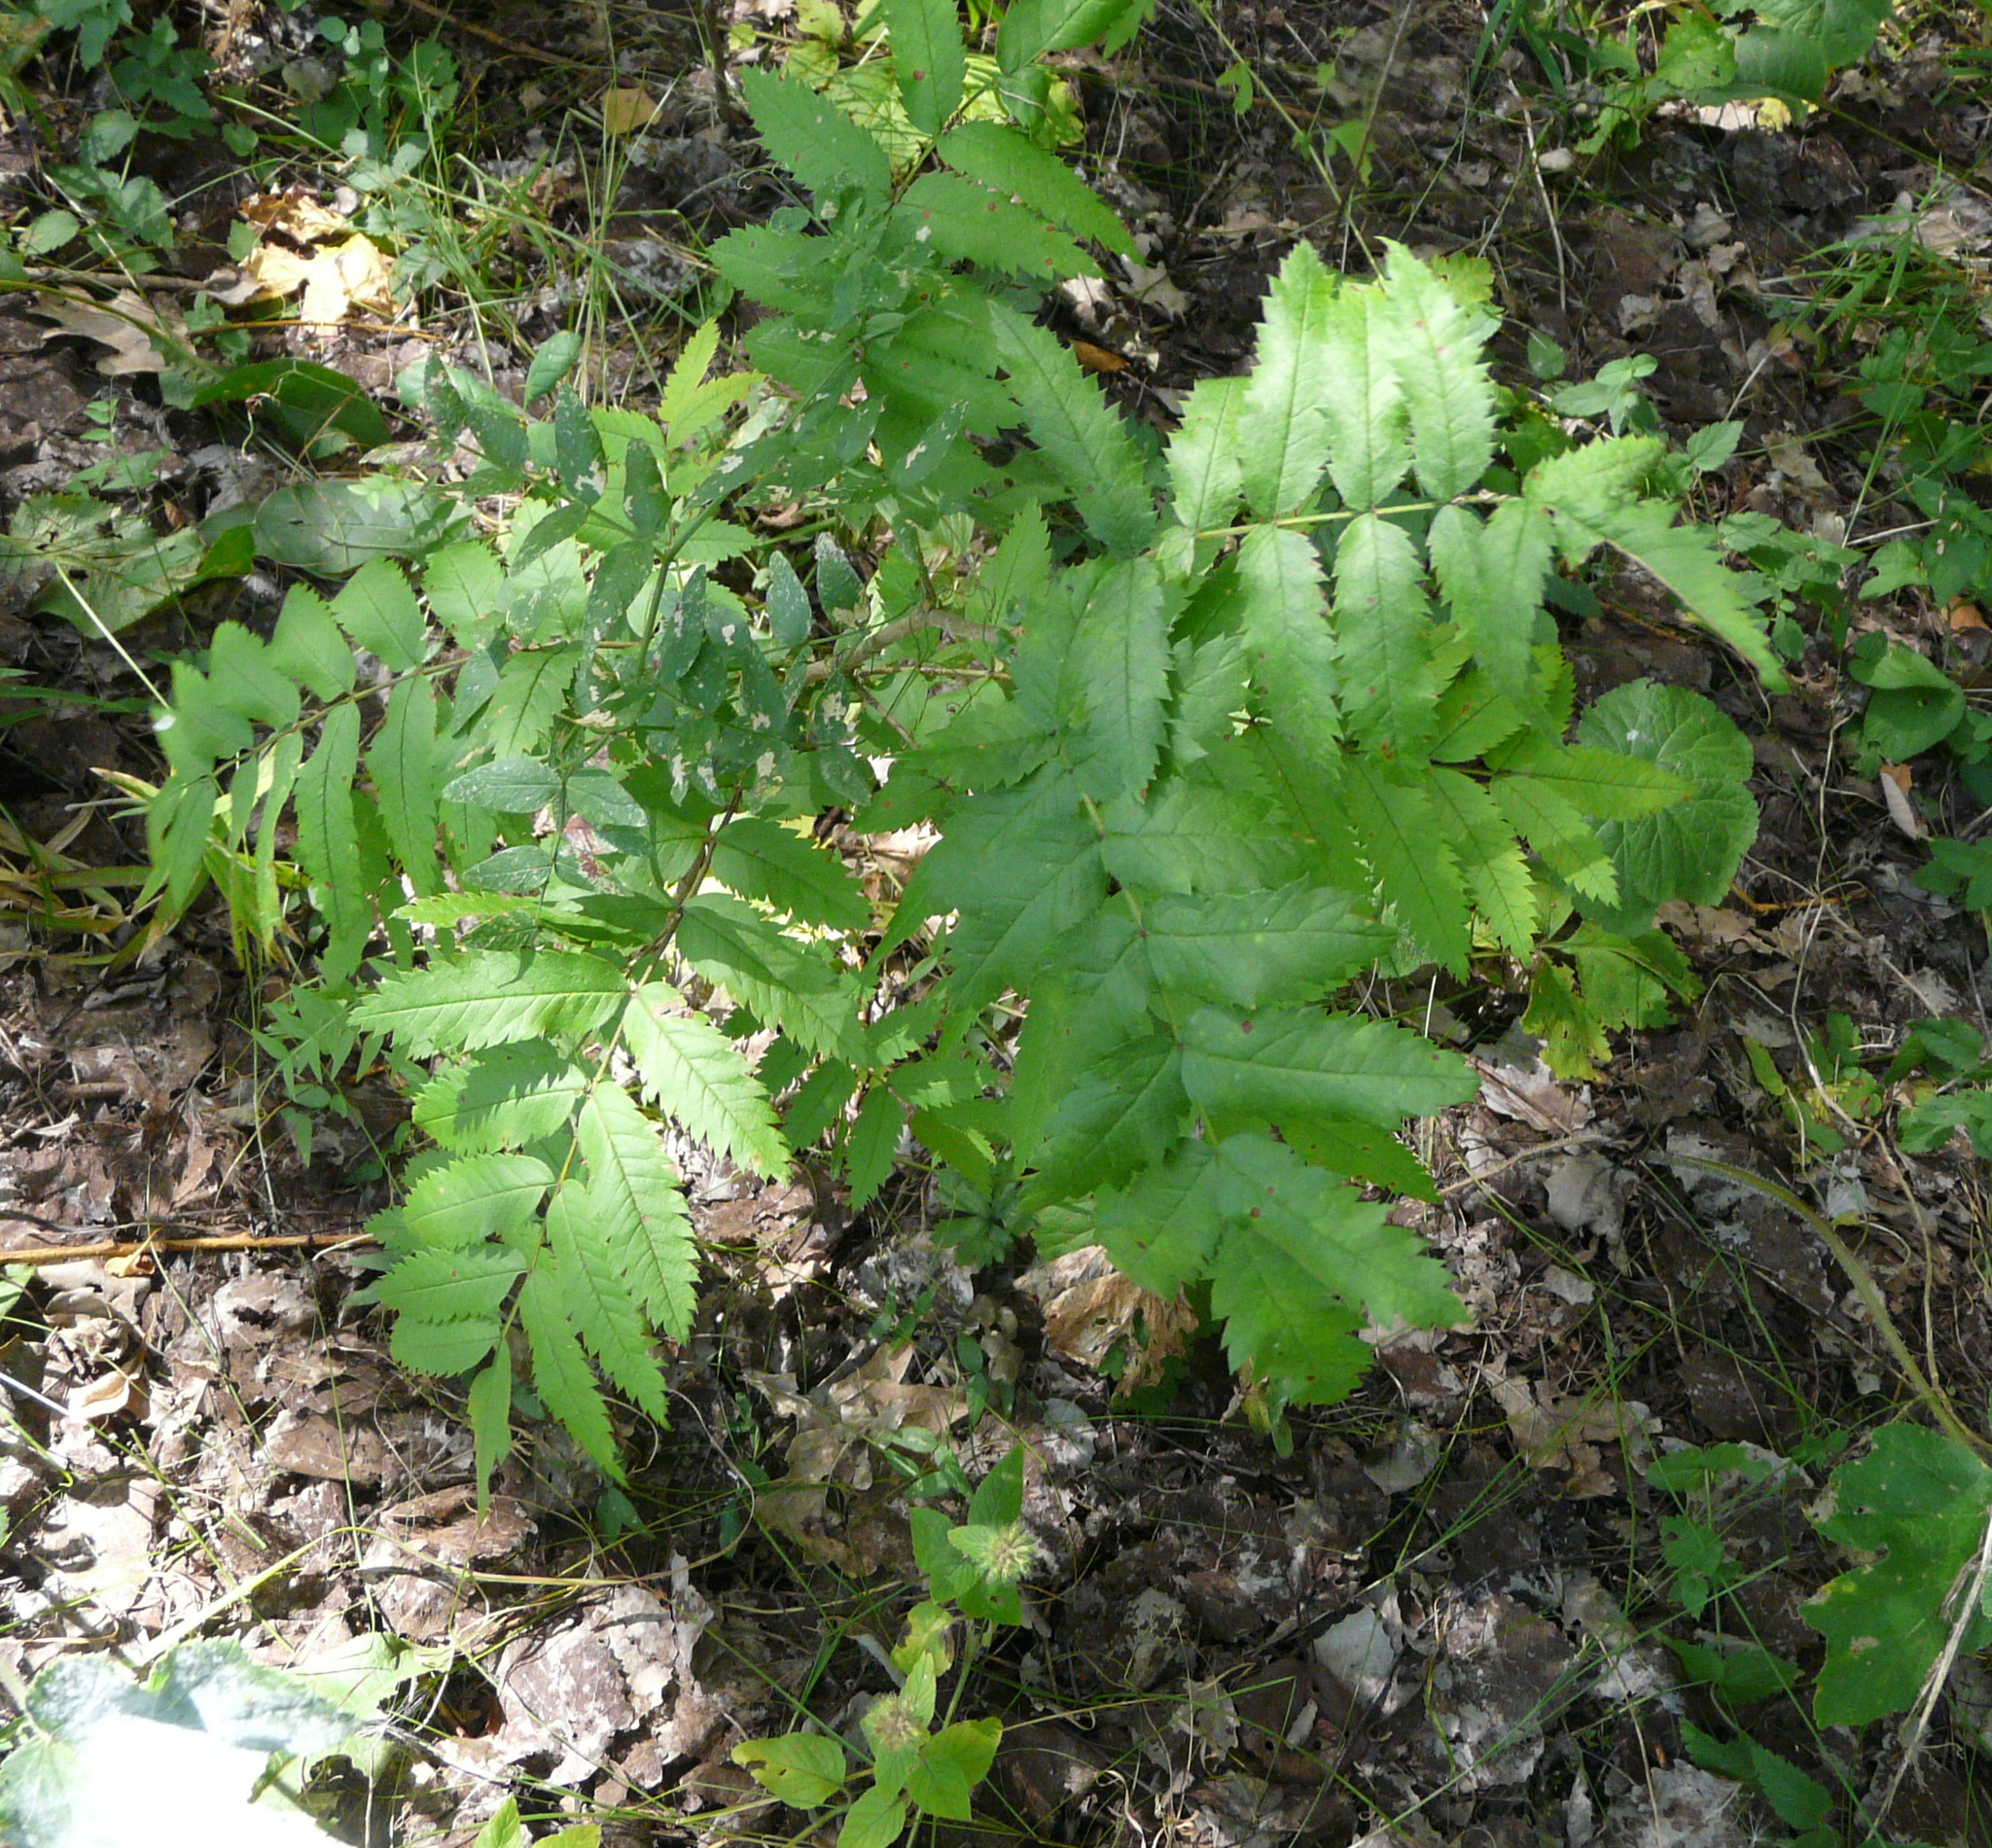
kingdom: Plantae
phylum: Tracheophyta
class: Magnoliopsida
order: Rosales
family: Rosaceae
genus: Sorbus
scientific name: Sorbus aucuparia
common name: Rowan
